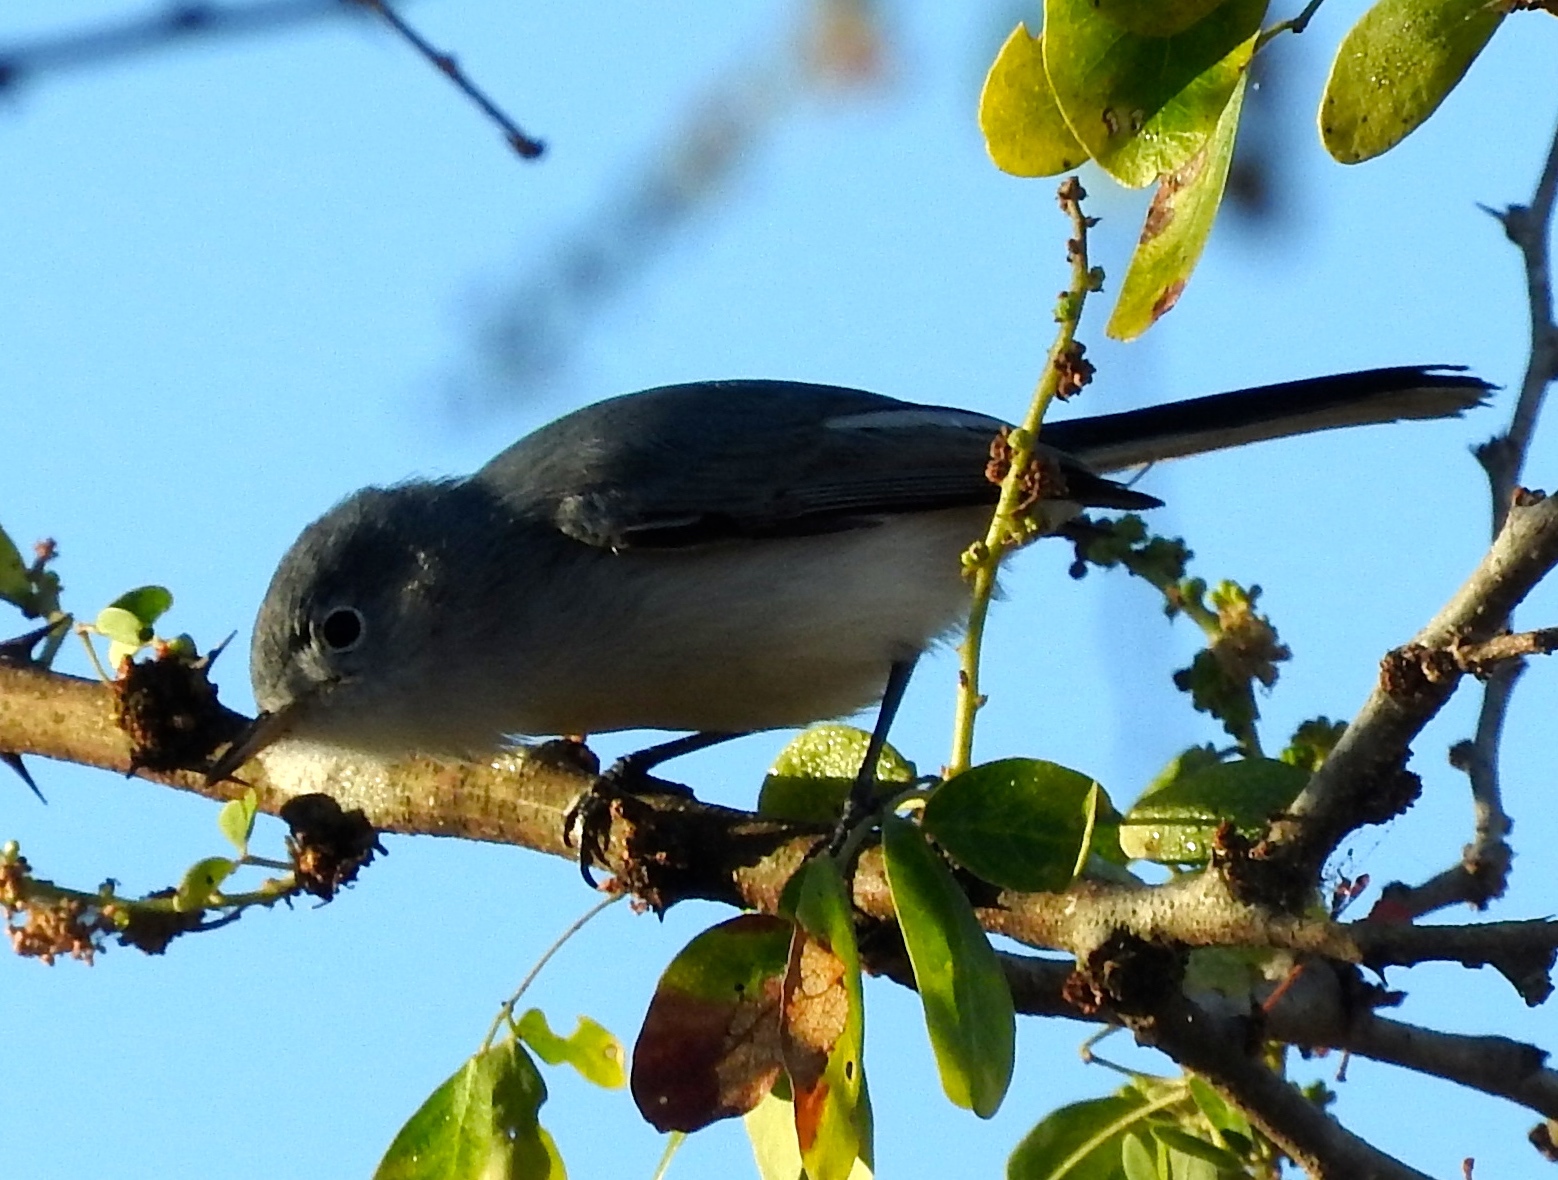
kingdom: Animalia
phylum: Chordata
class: Aves
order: Passeriformes
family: Polioptilidae
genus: Polioptila
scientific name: Polioptila caerulea
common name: Blue-gray gnatcatcher
